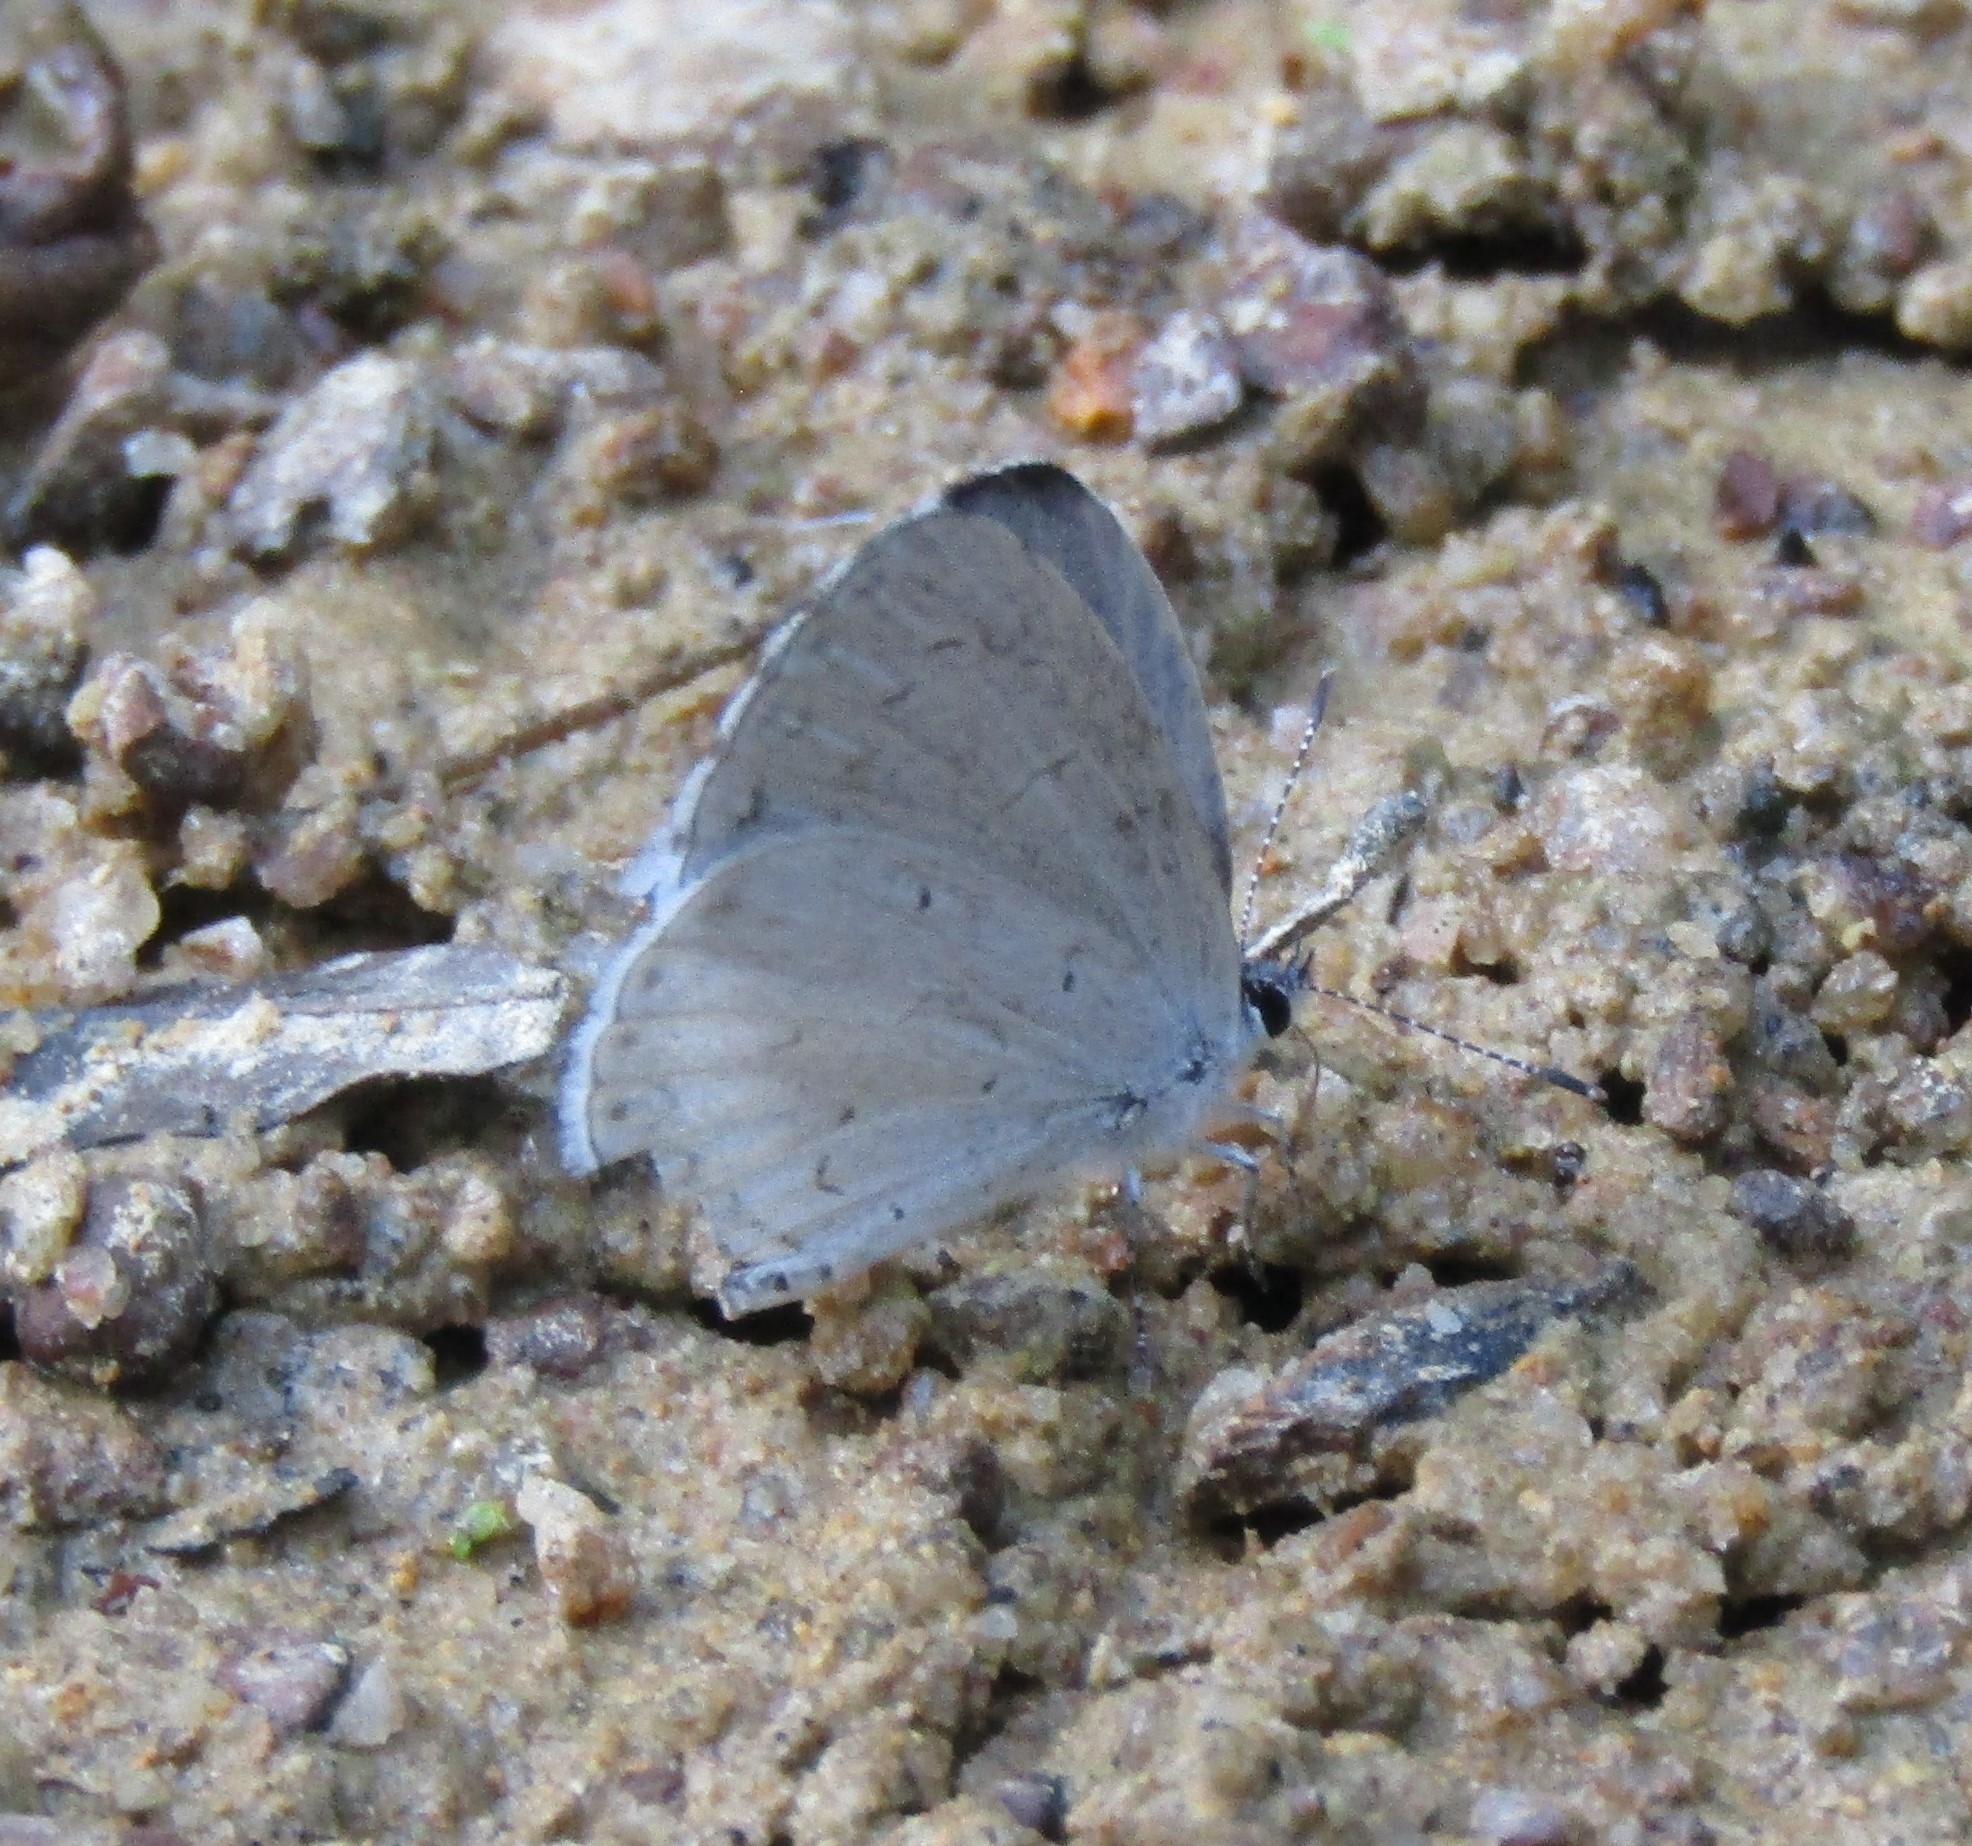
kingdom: Animalia
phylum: Arthropoda
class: Insecta
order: Lepidoptera
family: Lycaenidae
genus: Cyaniris
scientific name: Cyaniris neglecta
